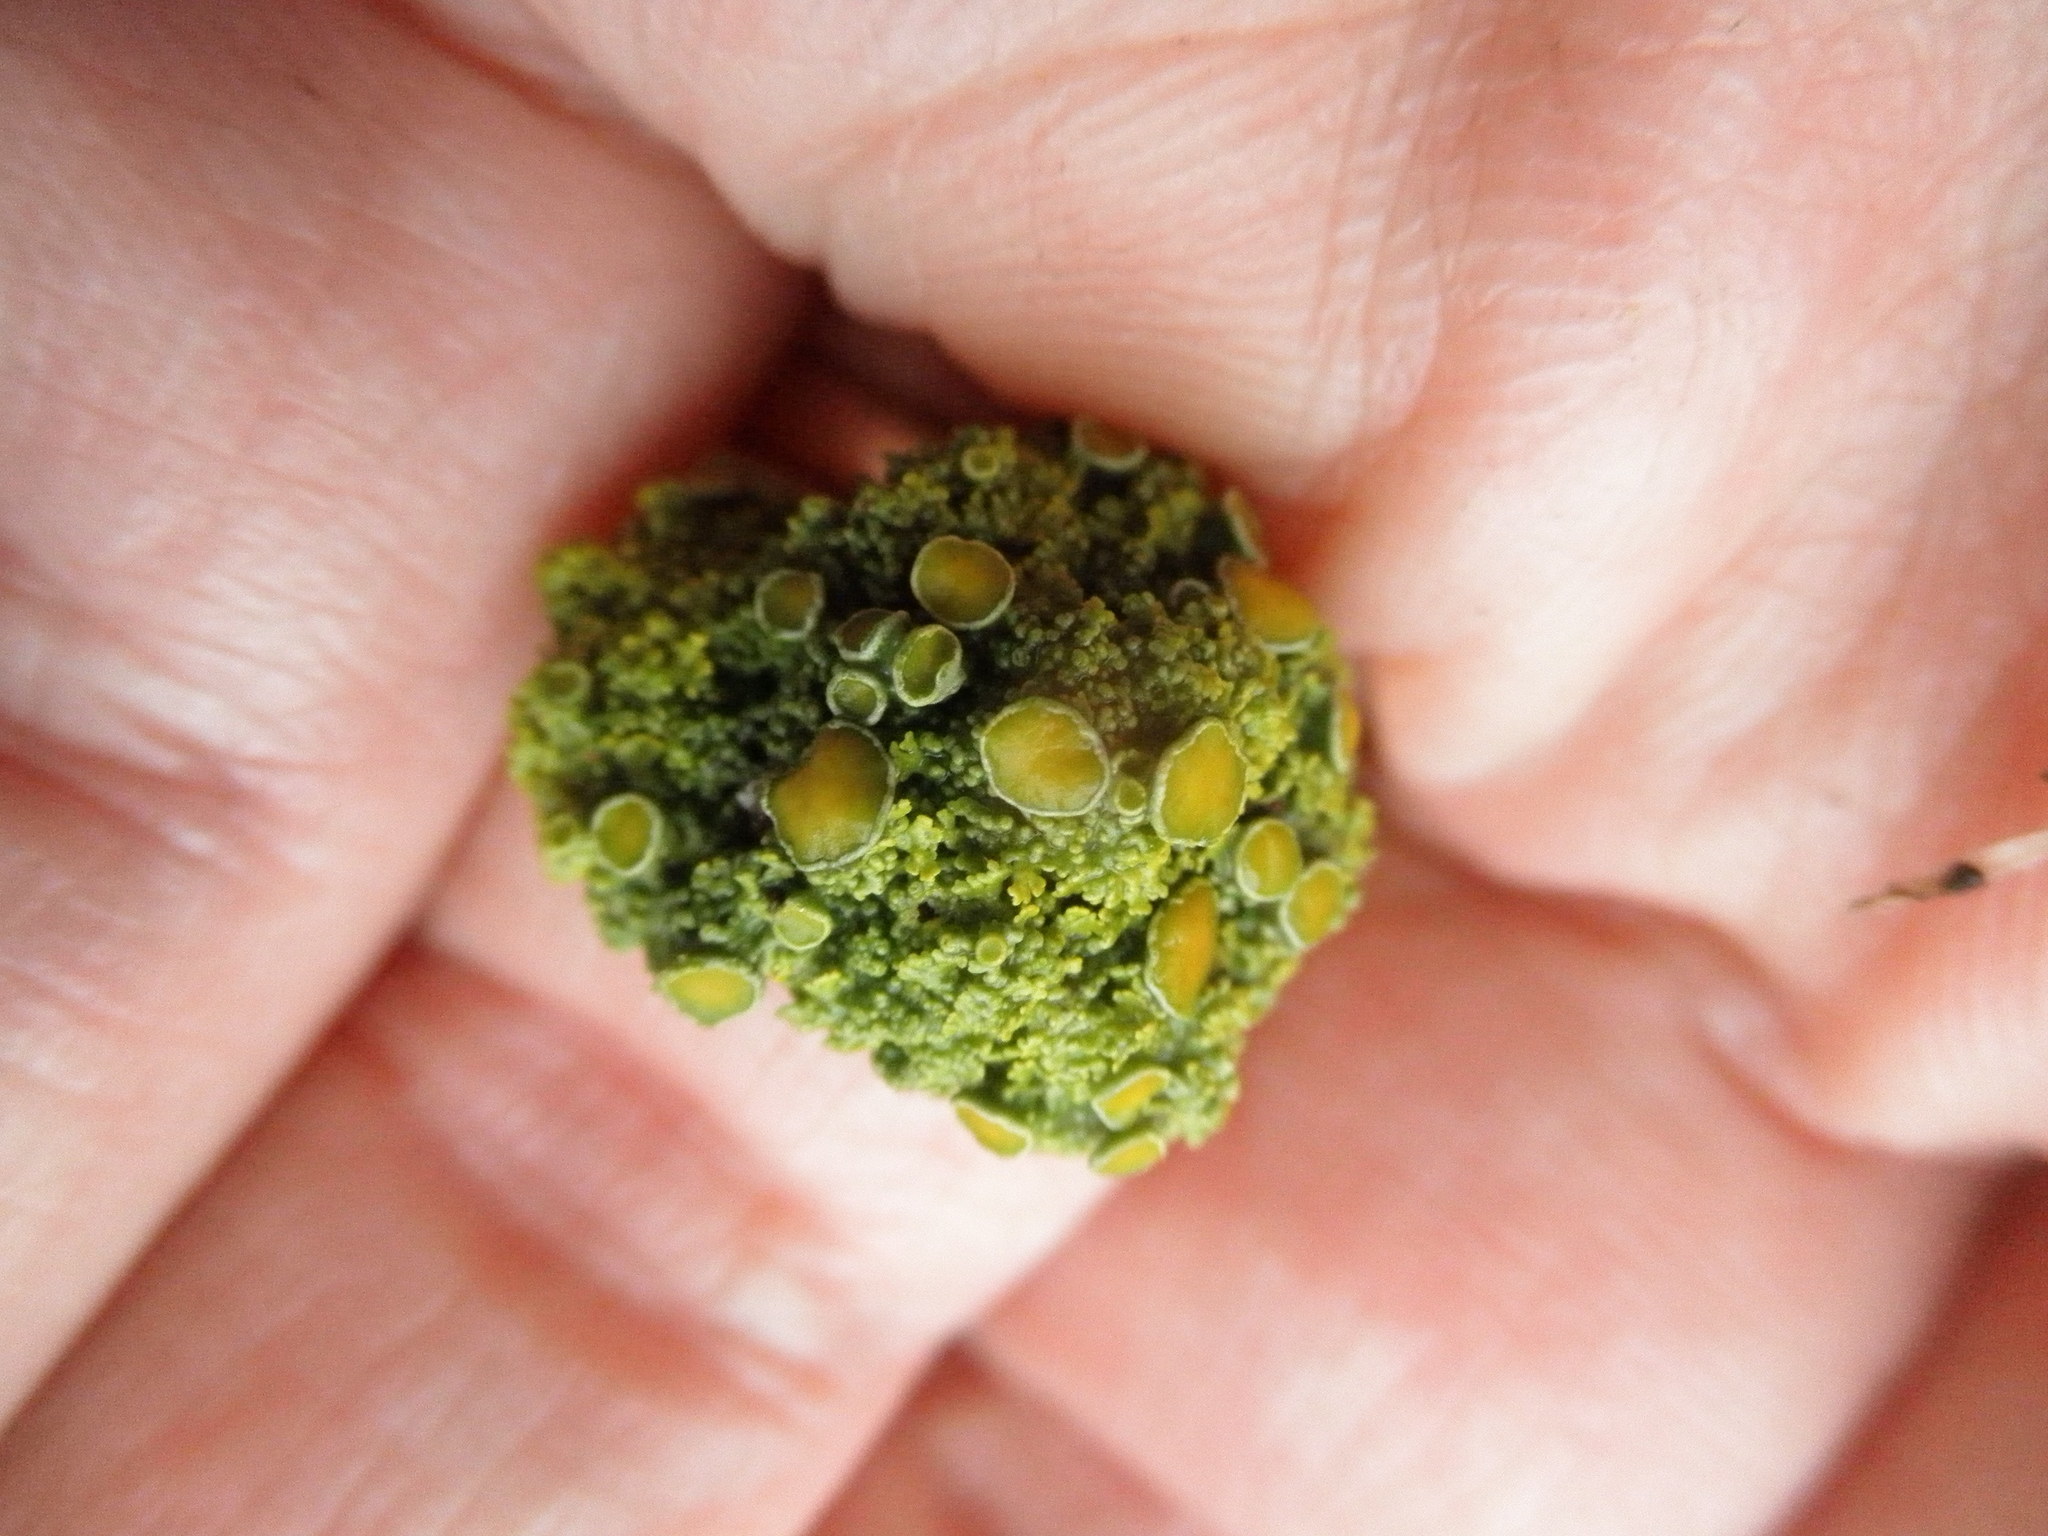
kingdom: Fungi
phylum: Ascomycota
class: Lecanoromycetes
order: Teloschistales
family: Teloschistaceae
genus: Gallowayella
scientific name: Gallowayella hasseana
